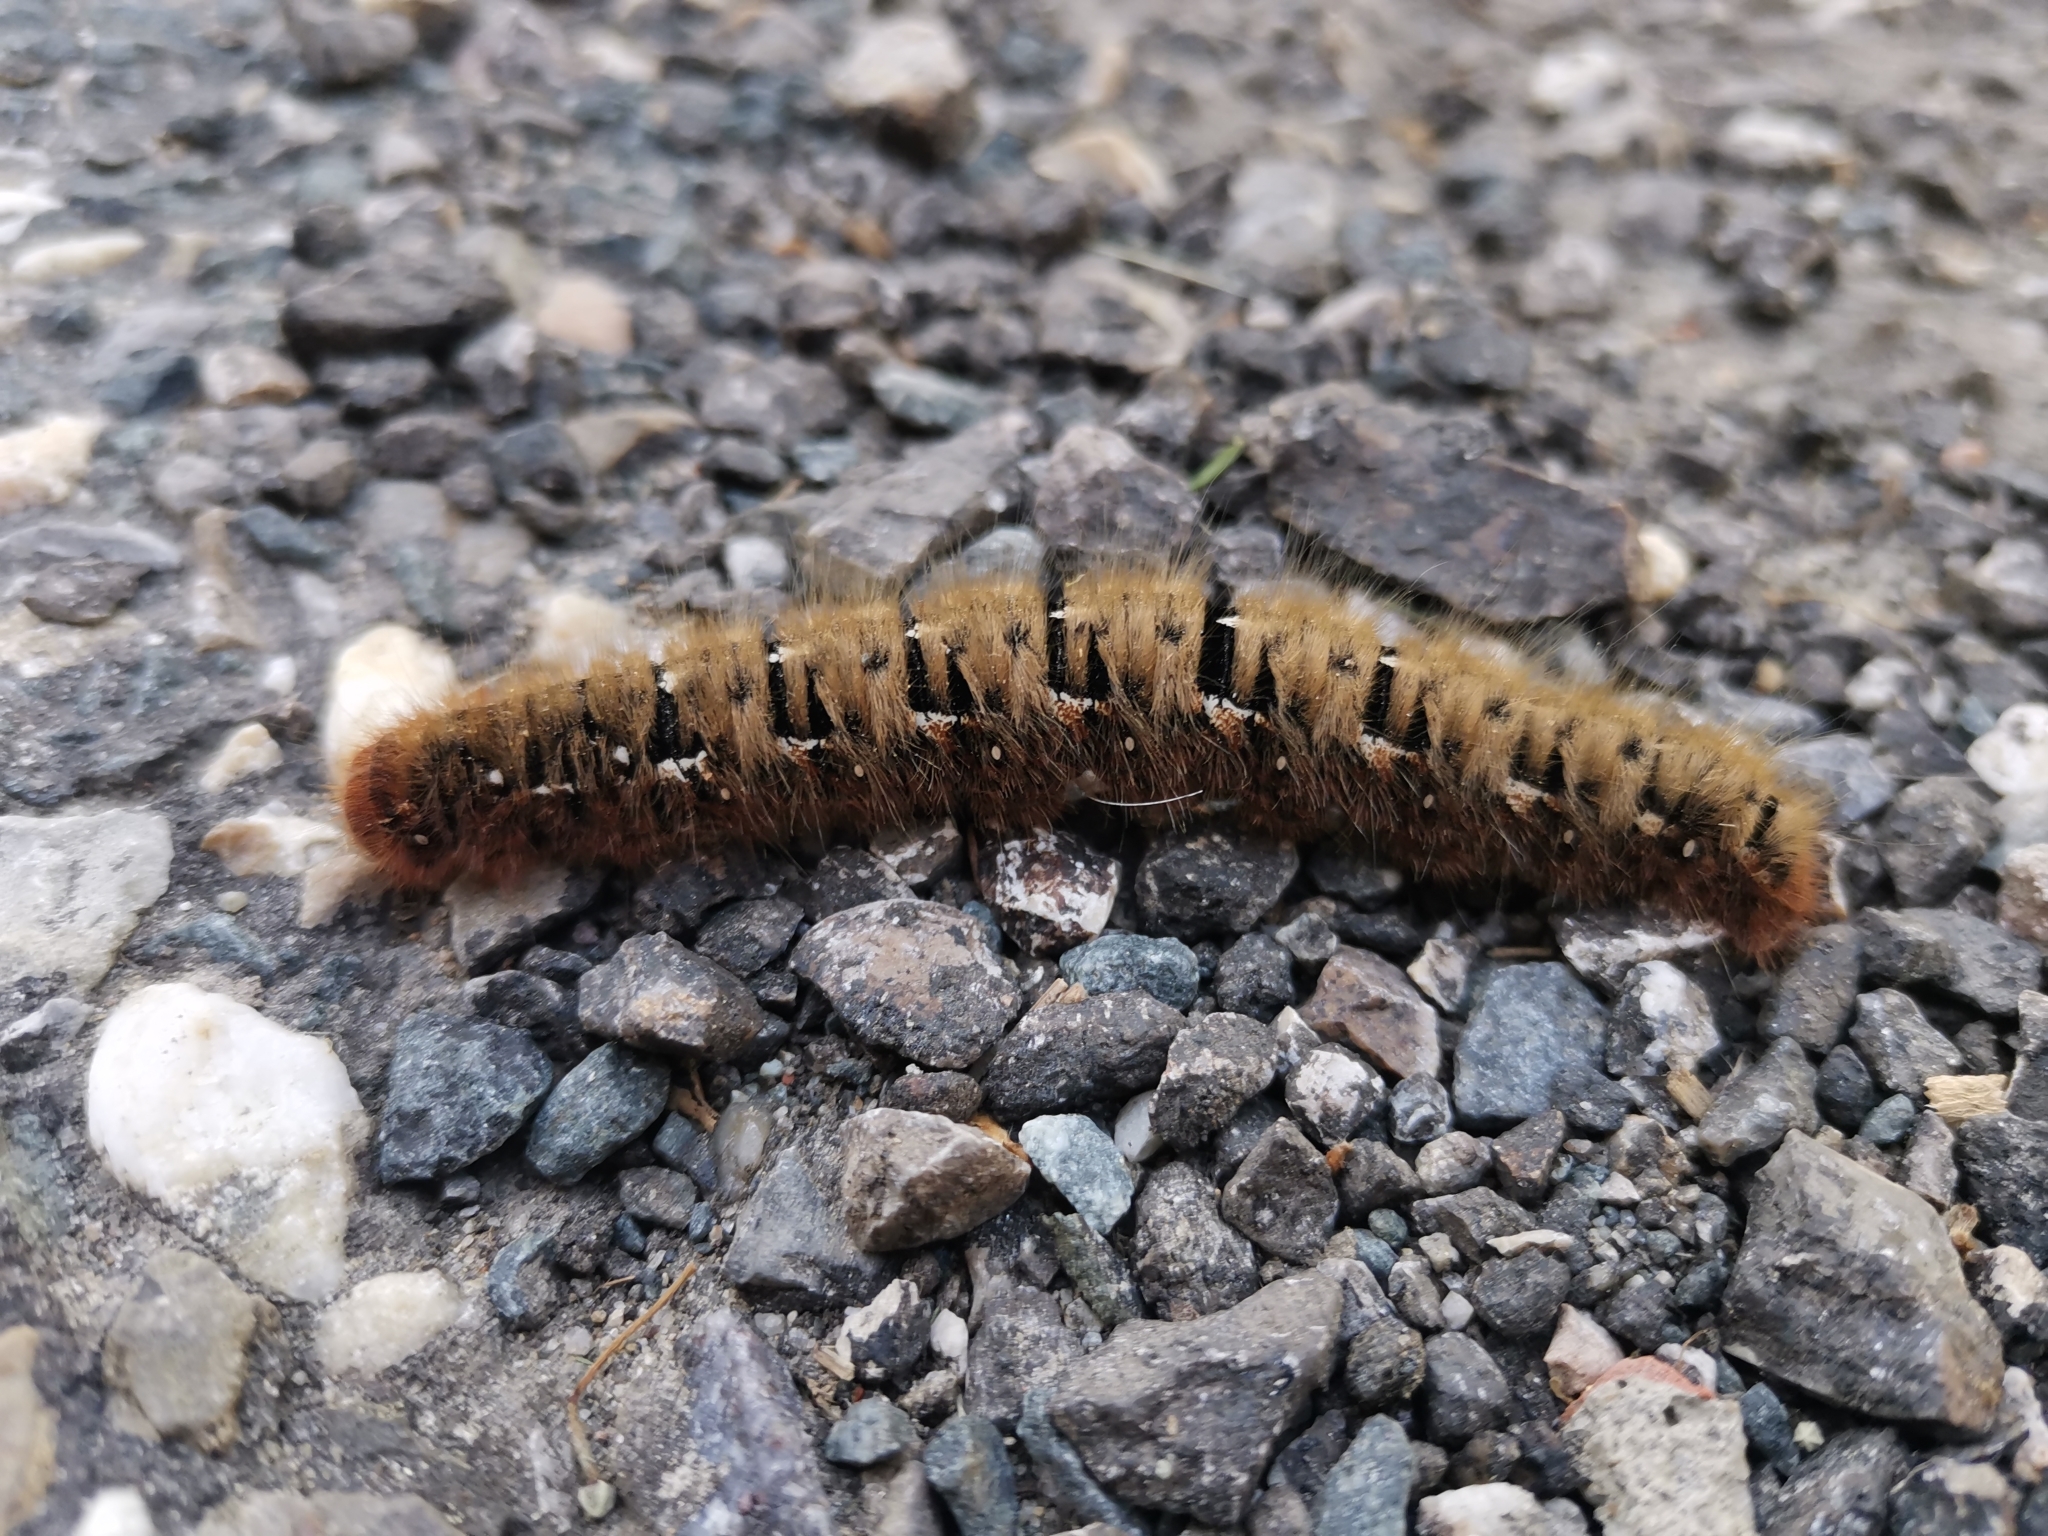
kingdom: Animalia
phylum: Arthropoda
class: Insecta
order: Lepidoptera
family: Lasiocampidae
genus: Lasiocampa
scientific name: Lasiocampa quercus
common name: Oak eggar
